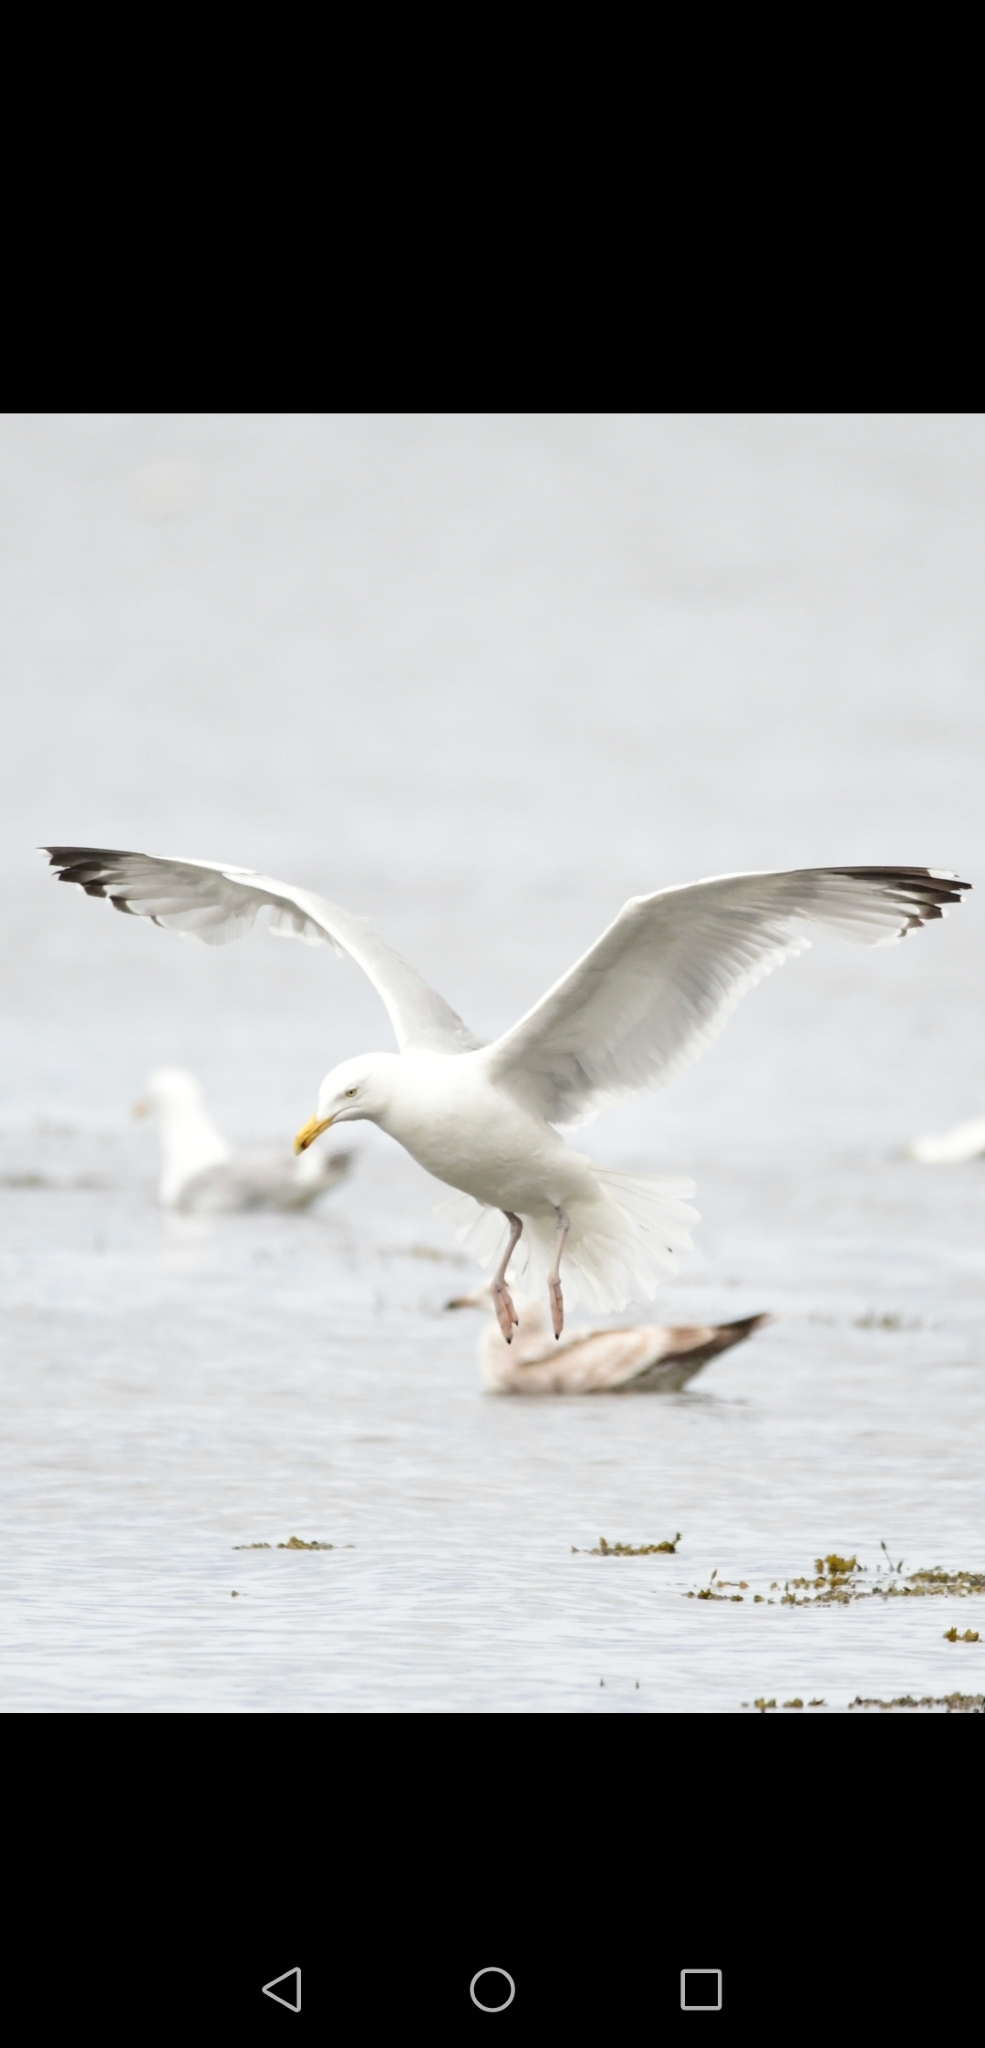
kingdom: Animalia
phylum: Chordata
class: Aves
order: Charadriiformes
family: Laridae
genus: Larus
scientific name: Larus argentatus
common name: Herring gull
